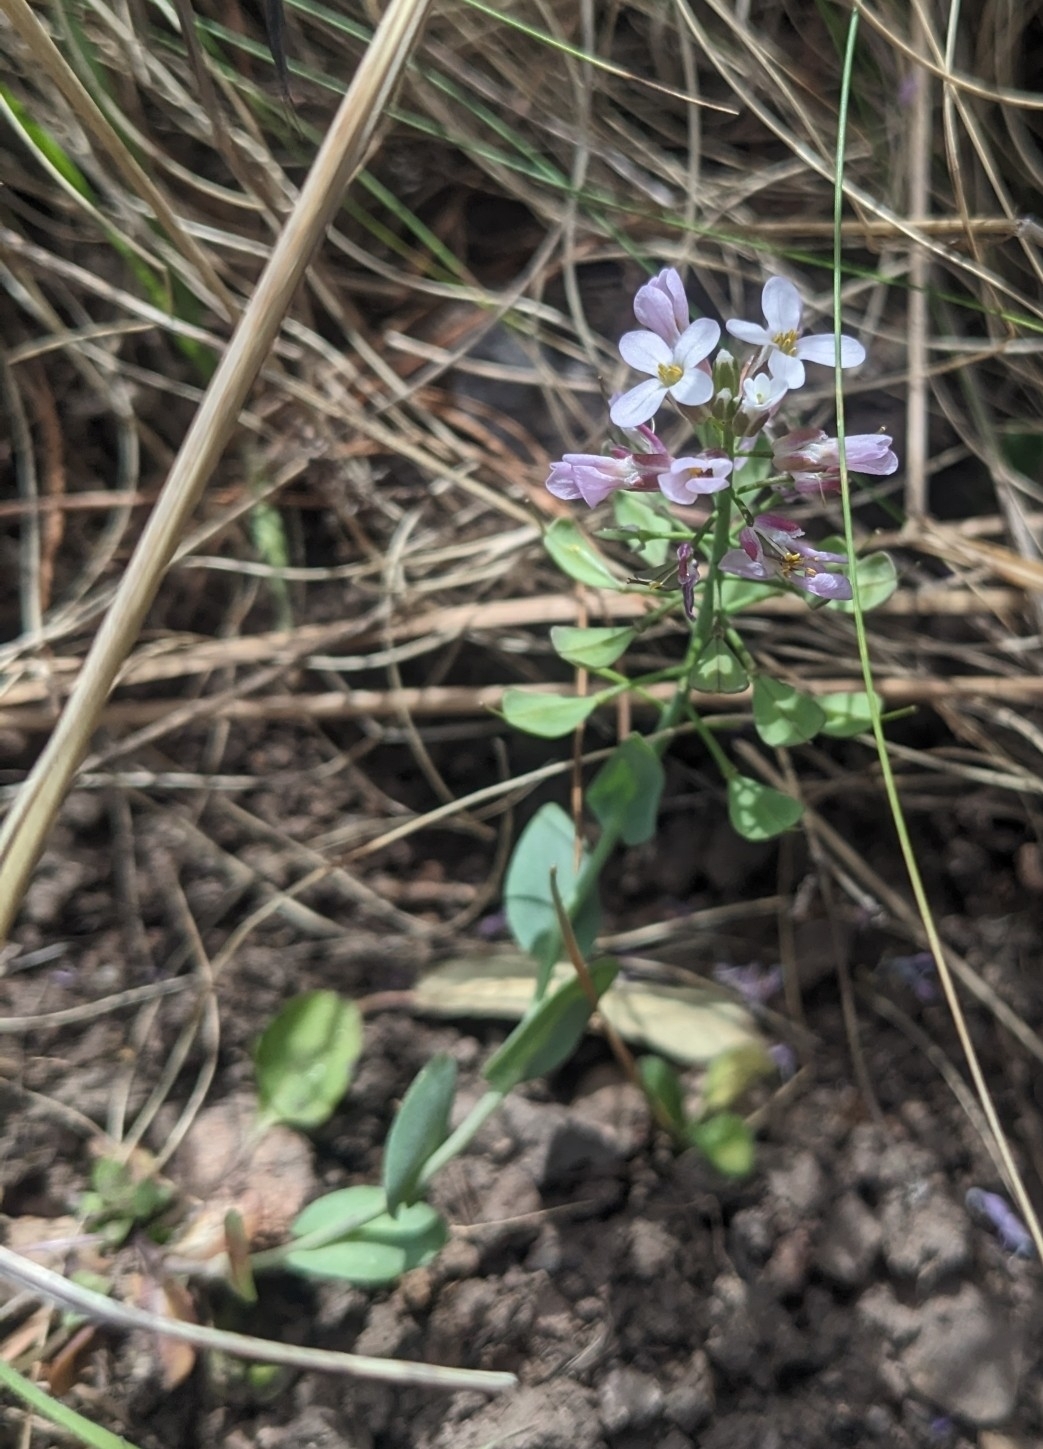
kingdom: Plantae
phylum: Tracheophyta
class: Magnoliopsida
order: Brassicales
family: Brassicaceae
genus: Noccaea
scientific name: Noccaea fendleri
